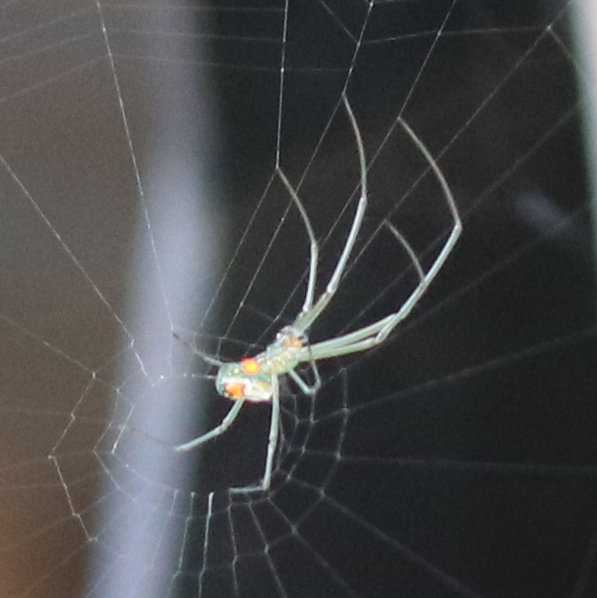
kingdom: Animalia
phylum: Arthropoda
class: Arachnida
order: Araneae
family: Tetragnathidae
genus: Leucauge
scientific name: Leucauge argyrobapta
